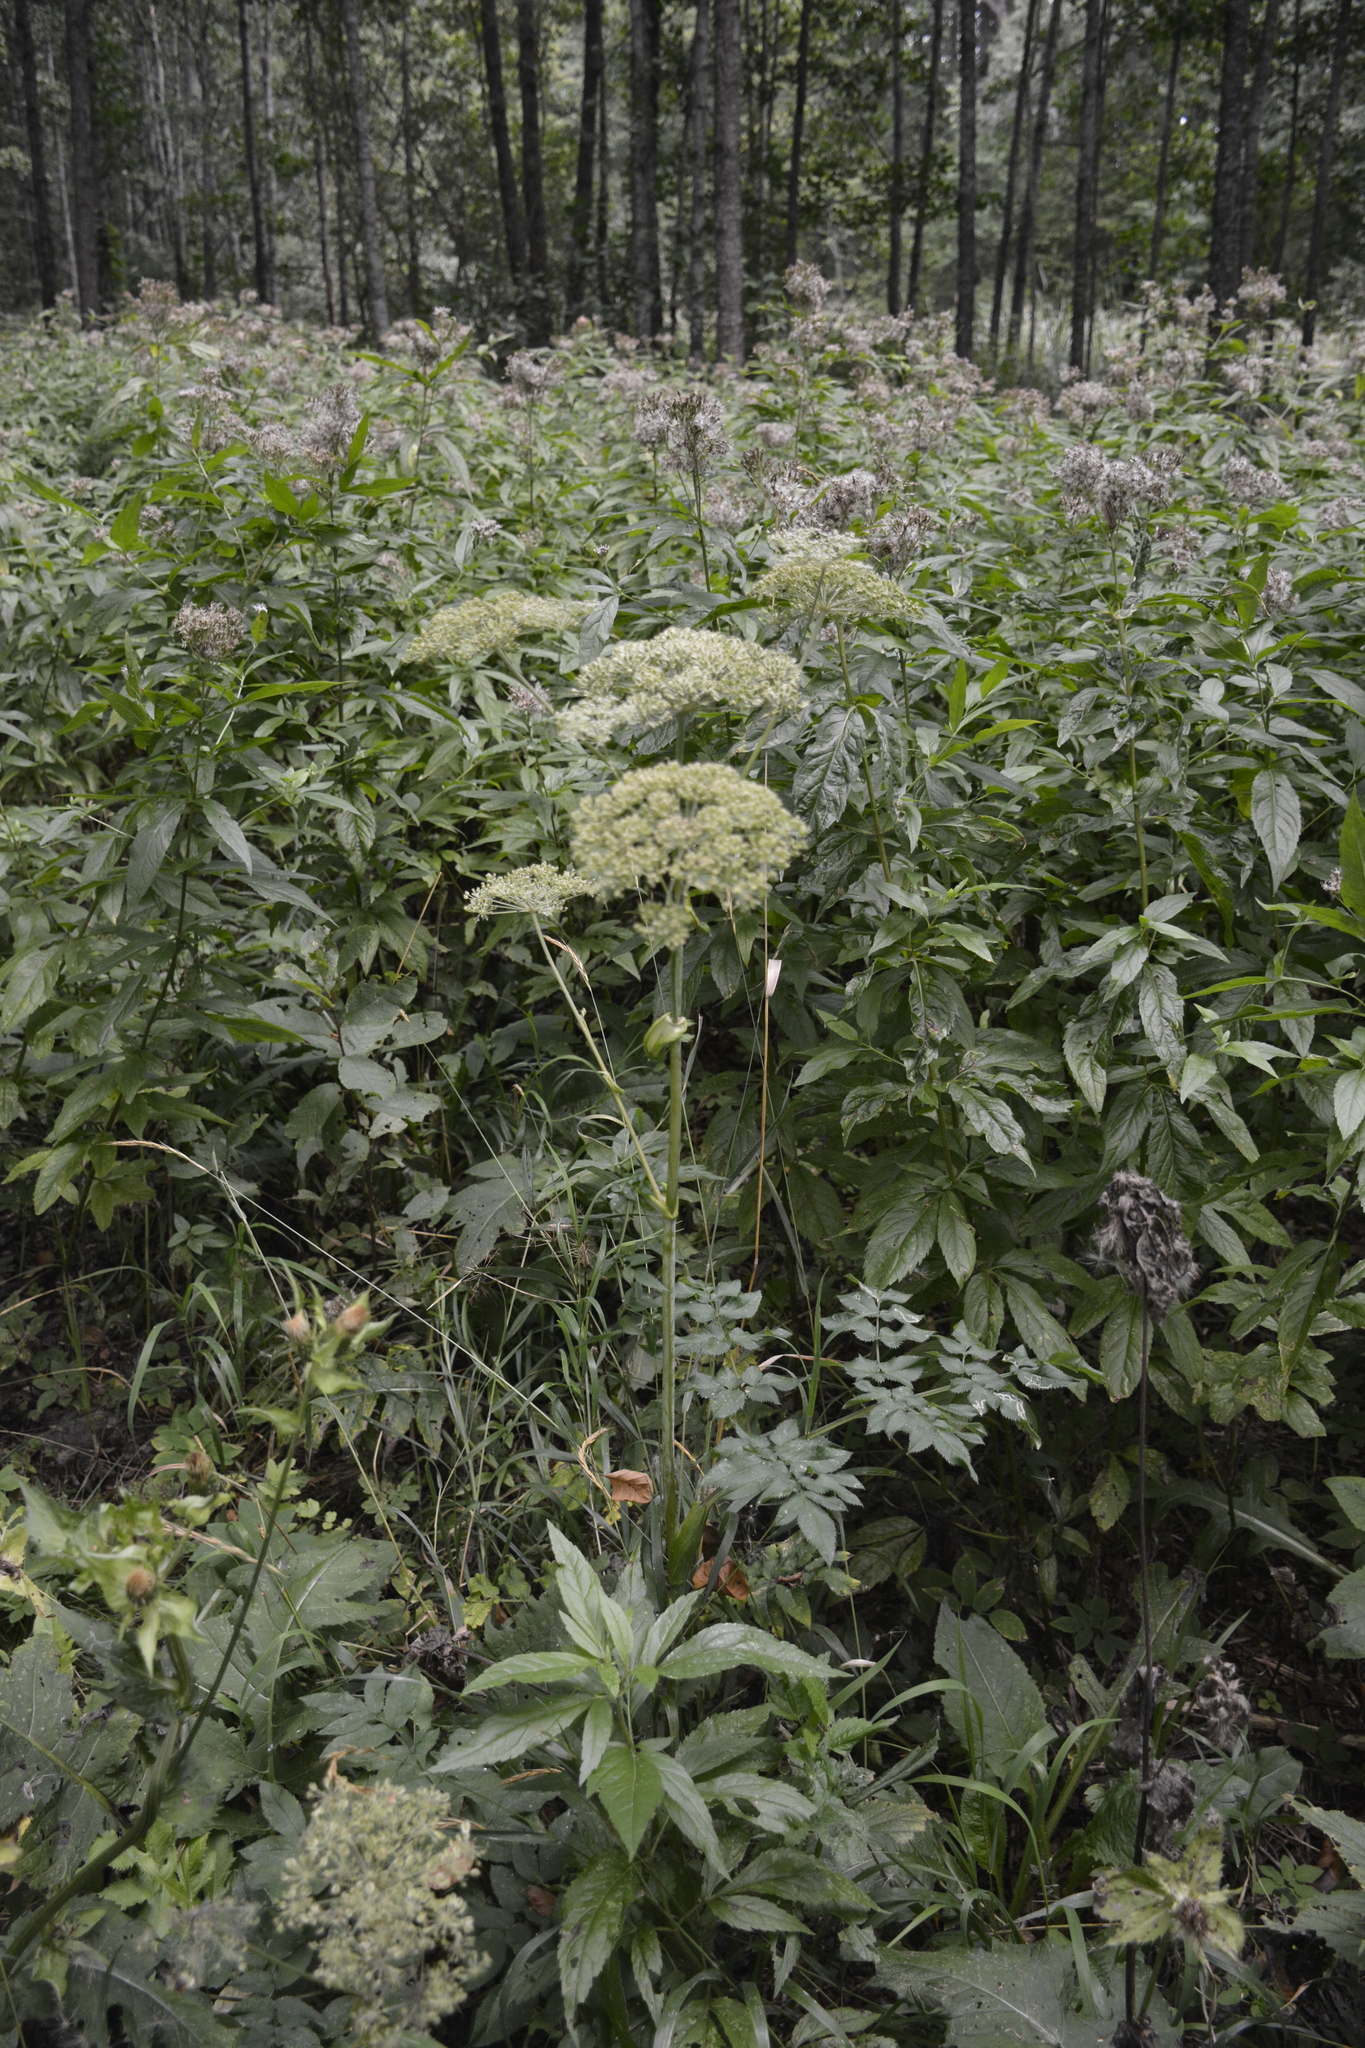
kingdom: Plantae
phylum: Tracheophyta
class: Magnoliopsida
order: Apiales
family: Apiaceae
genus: Angelica
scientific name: Angelica sylvestris
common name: Wild angelica
